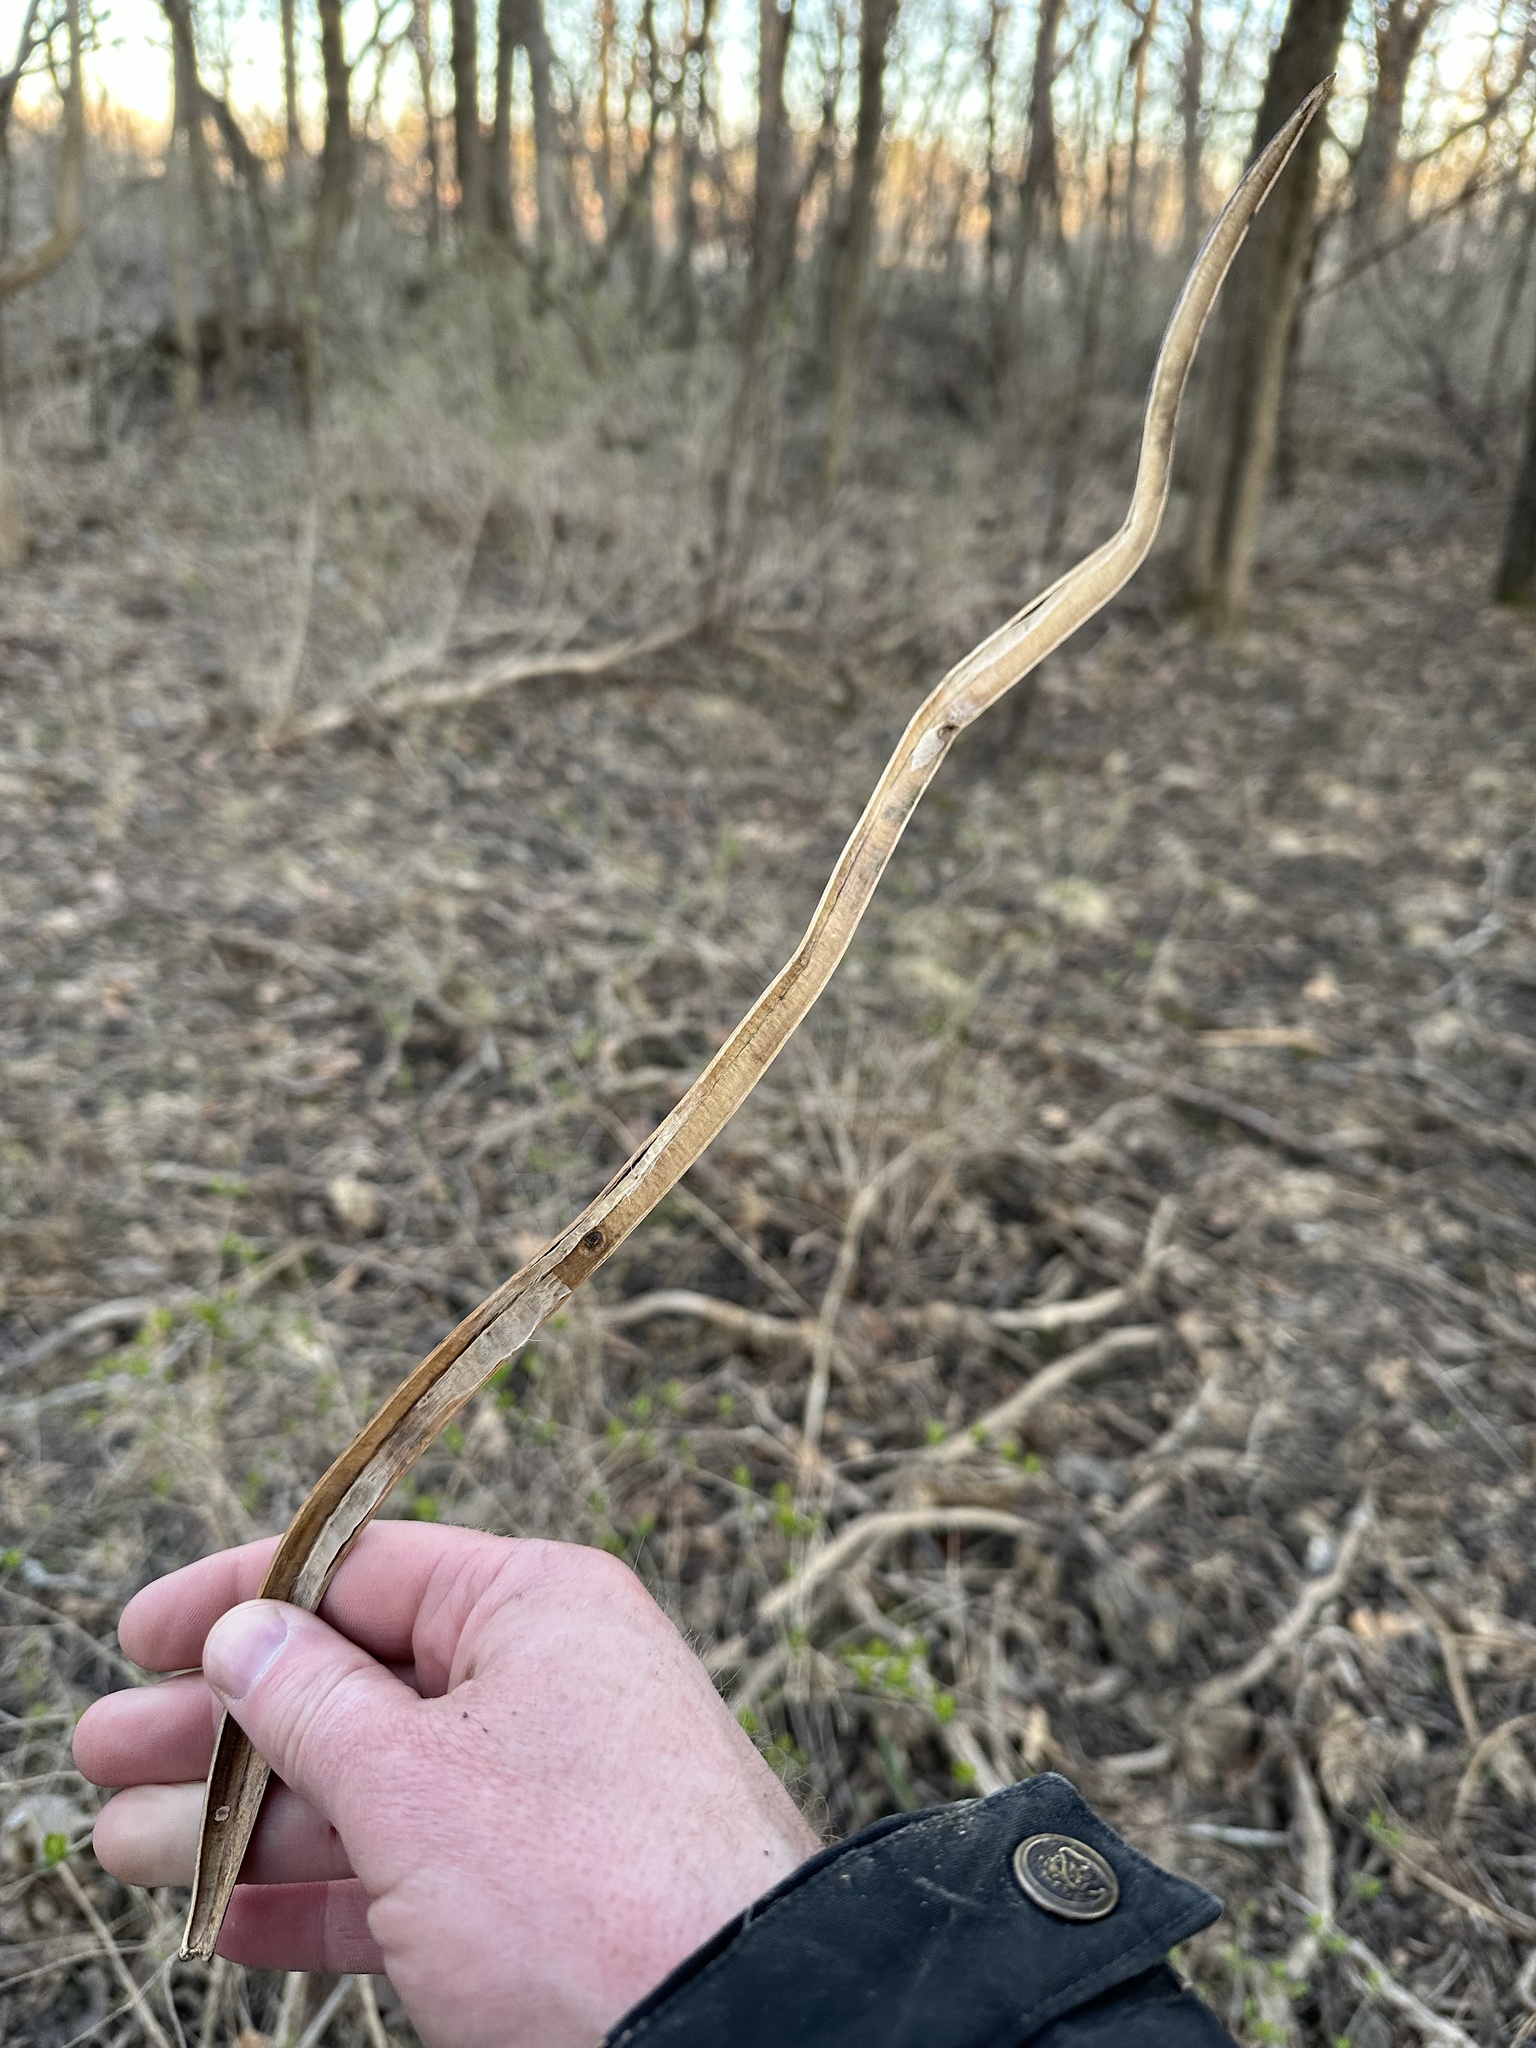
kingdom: Plantae
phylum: Tracheophyta
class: Magnoliopsida
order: Lamiales
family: Bignoniaceae
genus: Catalpa
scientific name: Catalpa speciosa
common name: Northern catalpa
